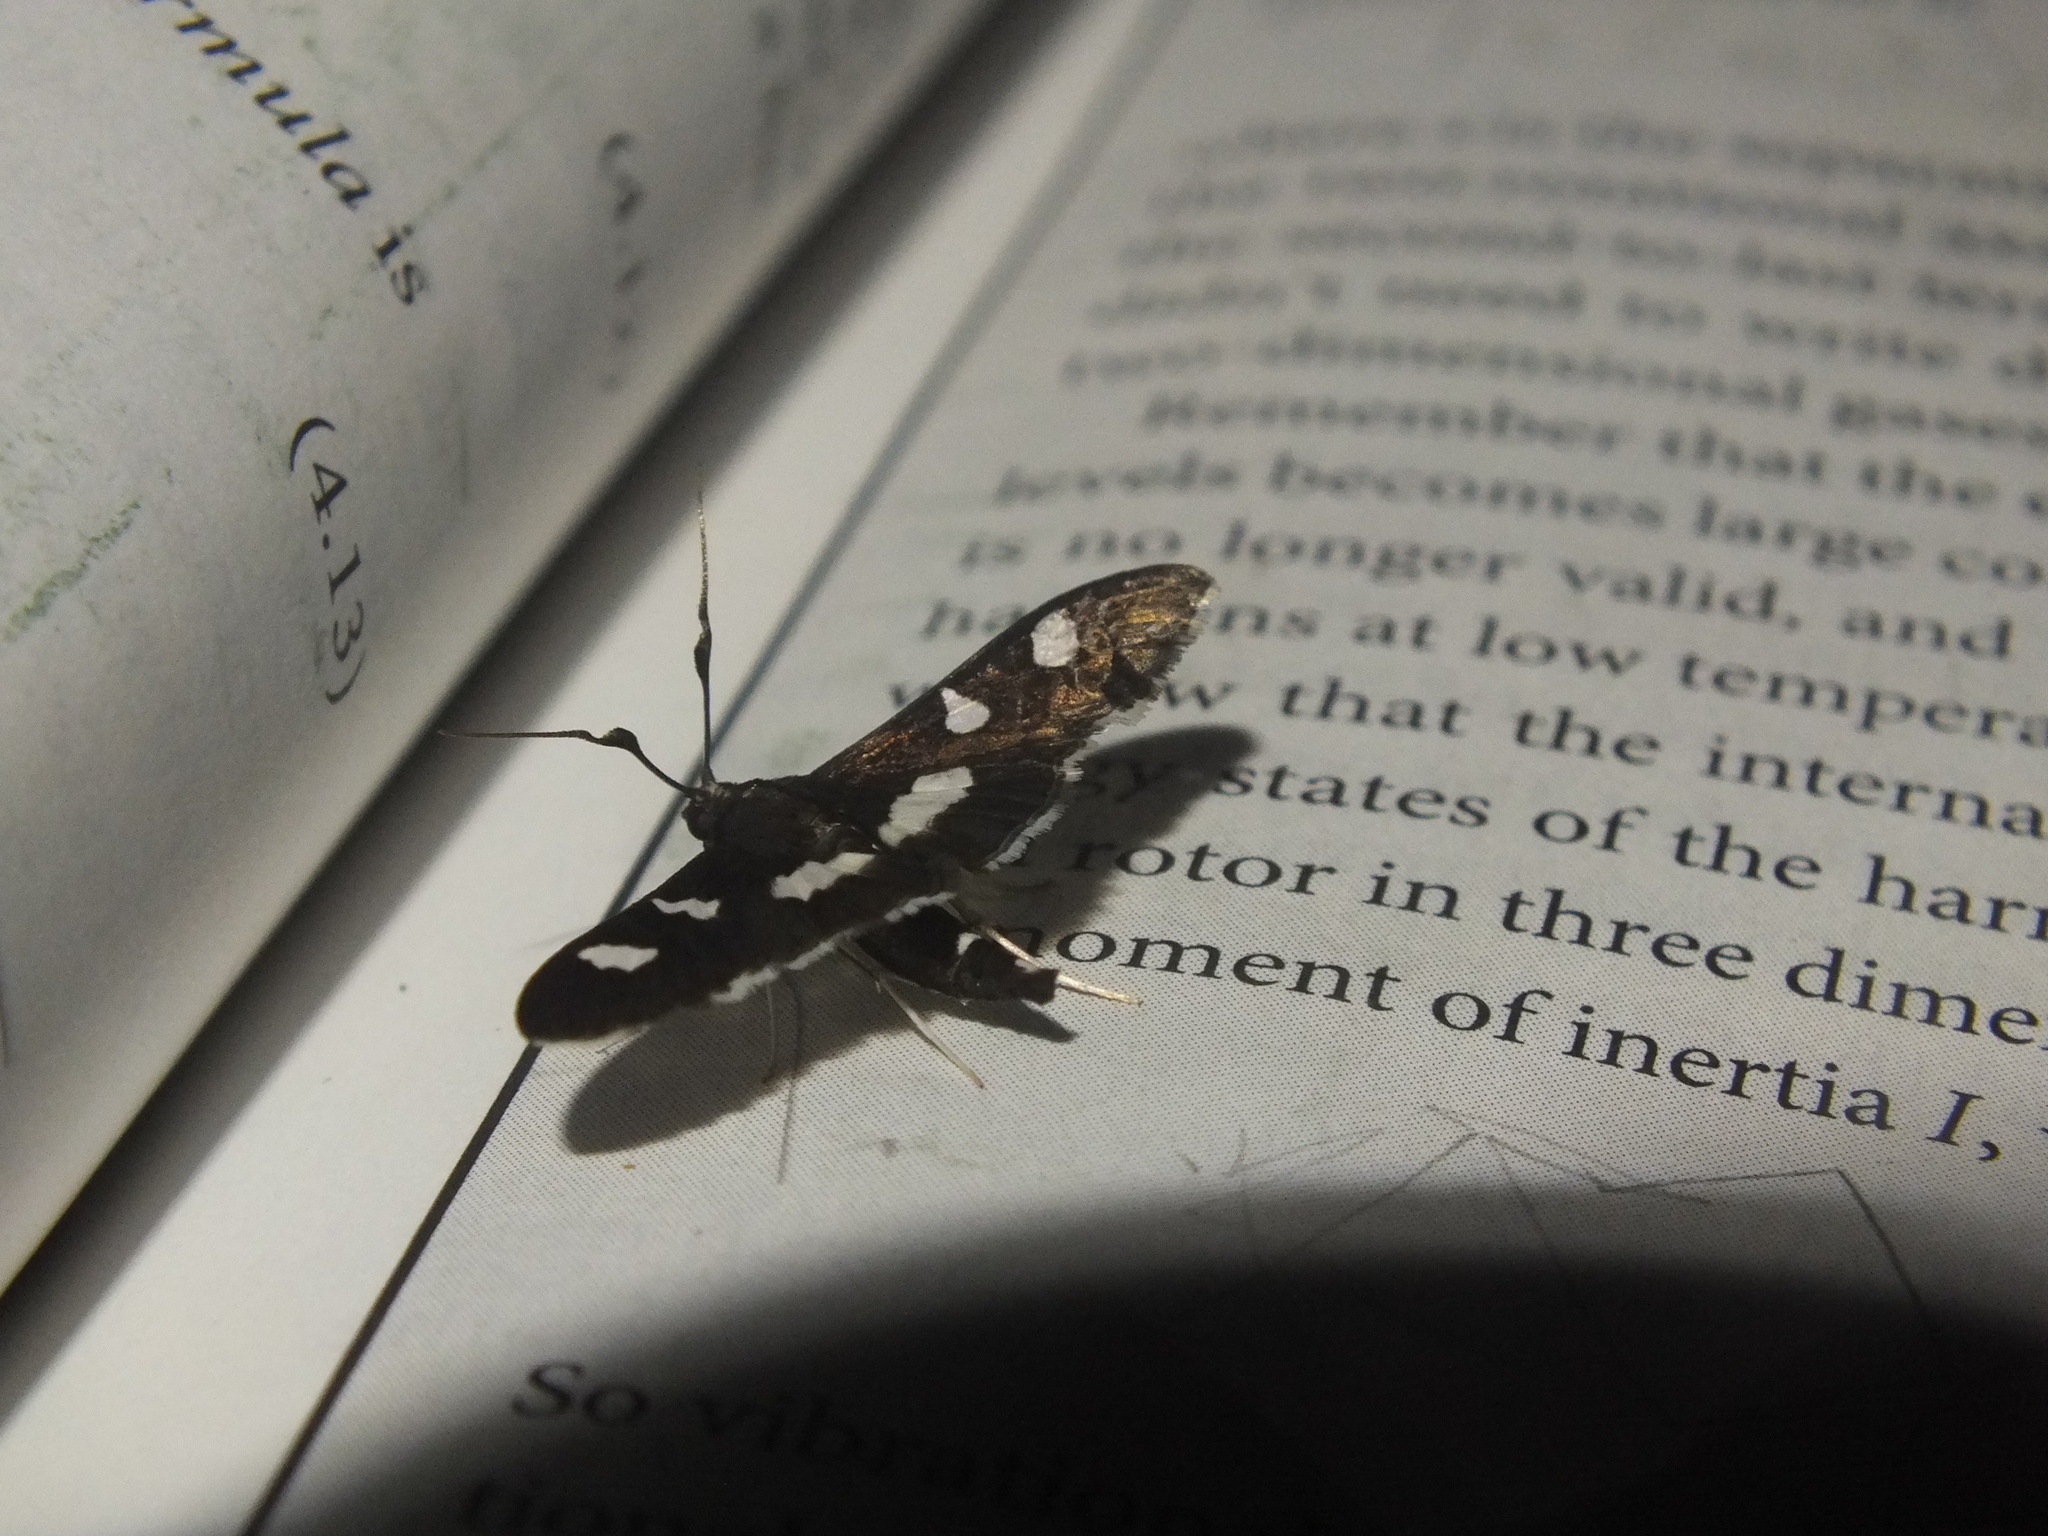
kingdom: Animalia
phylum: Arthropoda
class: Insecta
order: Lepidoptera
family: Crambidae
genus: Desmia
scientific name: Desmia
